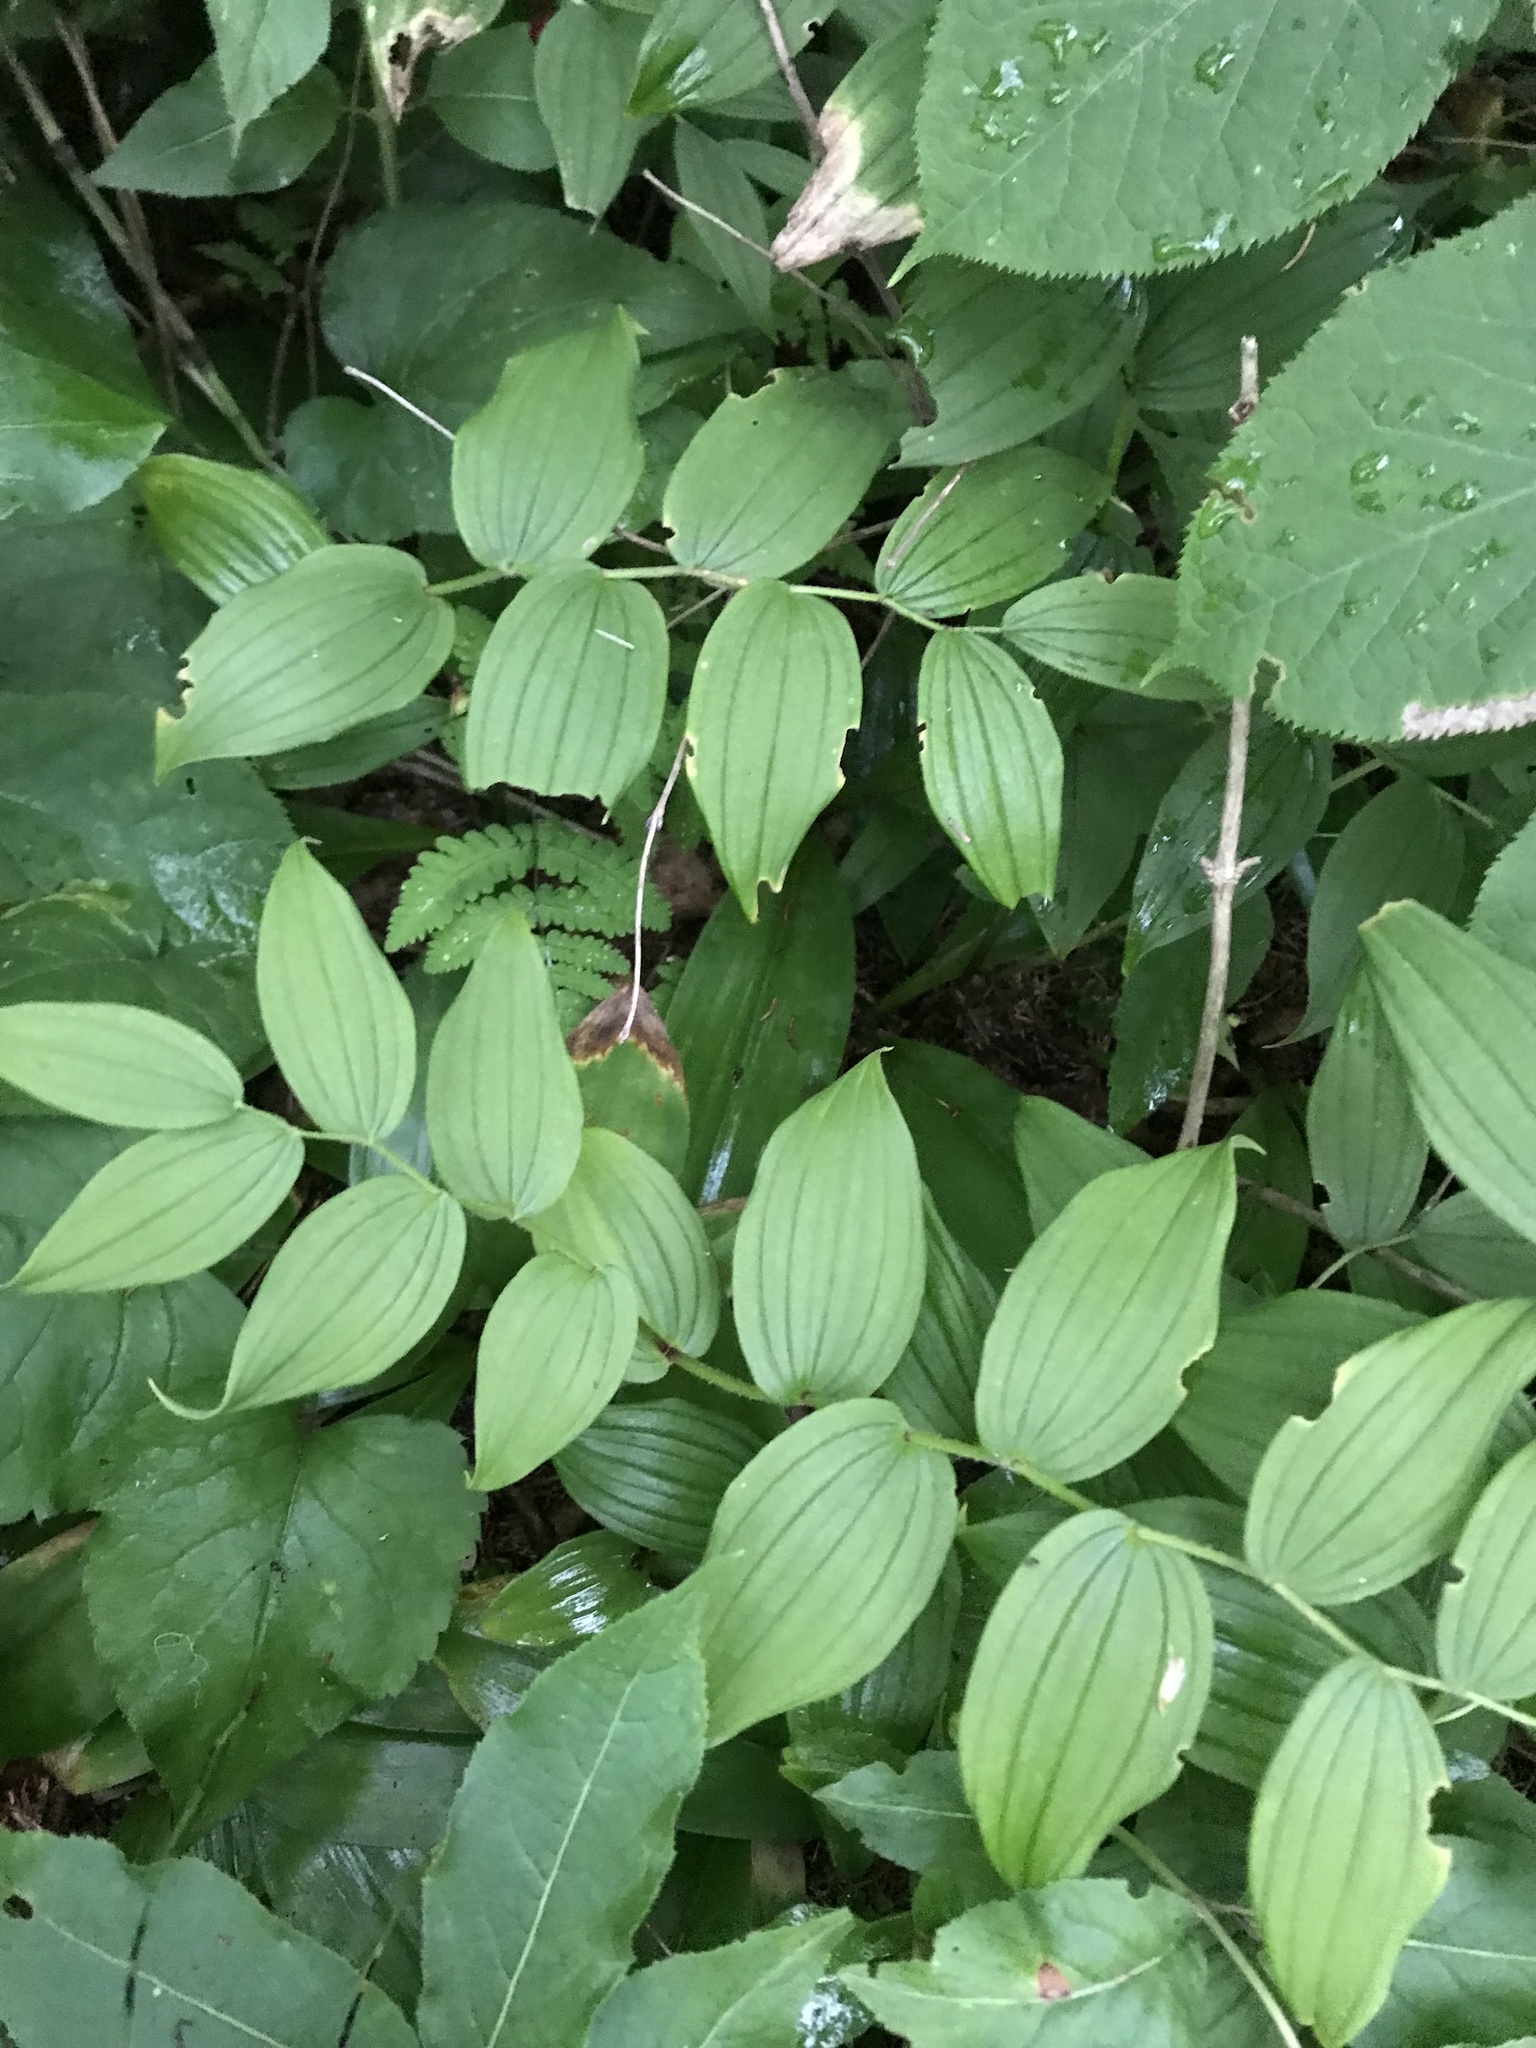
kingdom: Plantae
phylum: Tracheophyta
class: Liliopsida
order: Liliales
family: Liliaceae
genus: Streptopus
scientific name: Streptopus lanceolatus
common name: Rose mandarin
